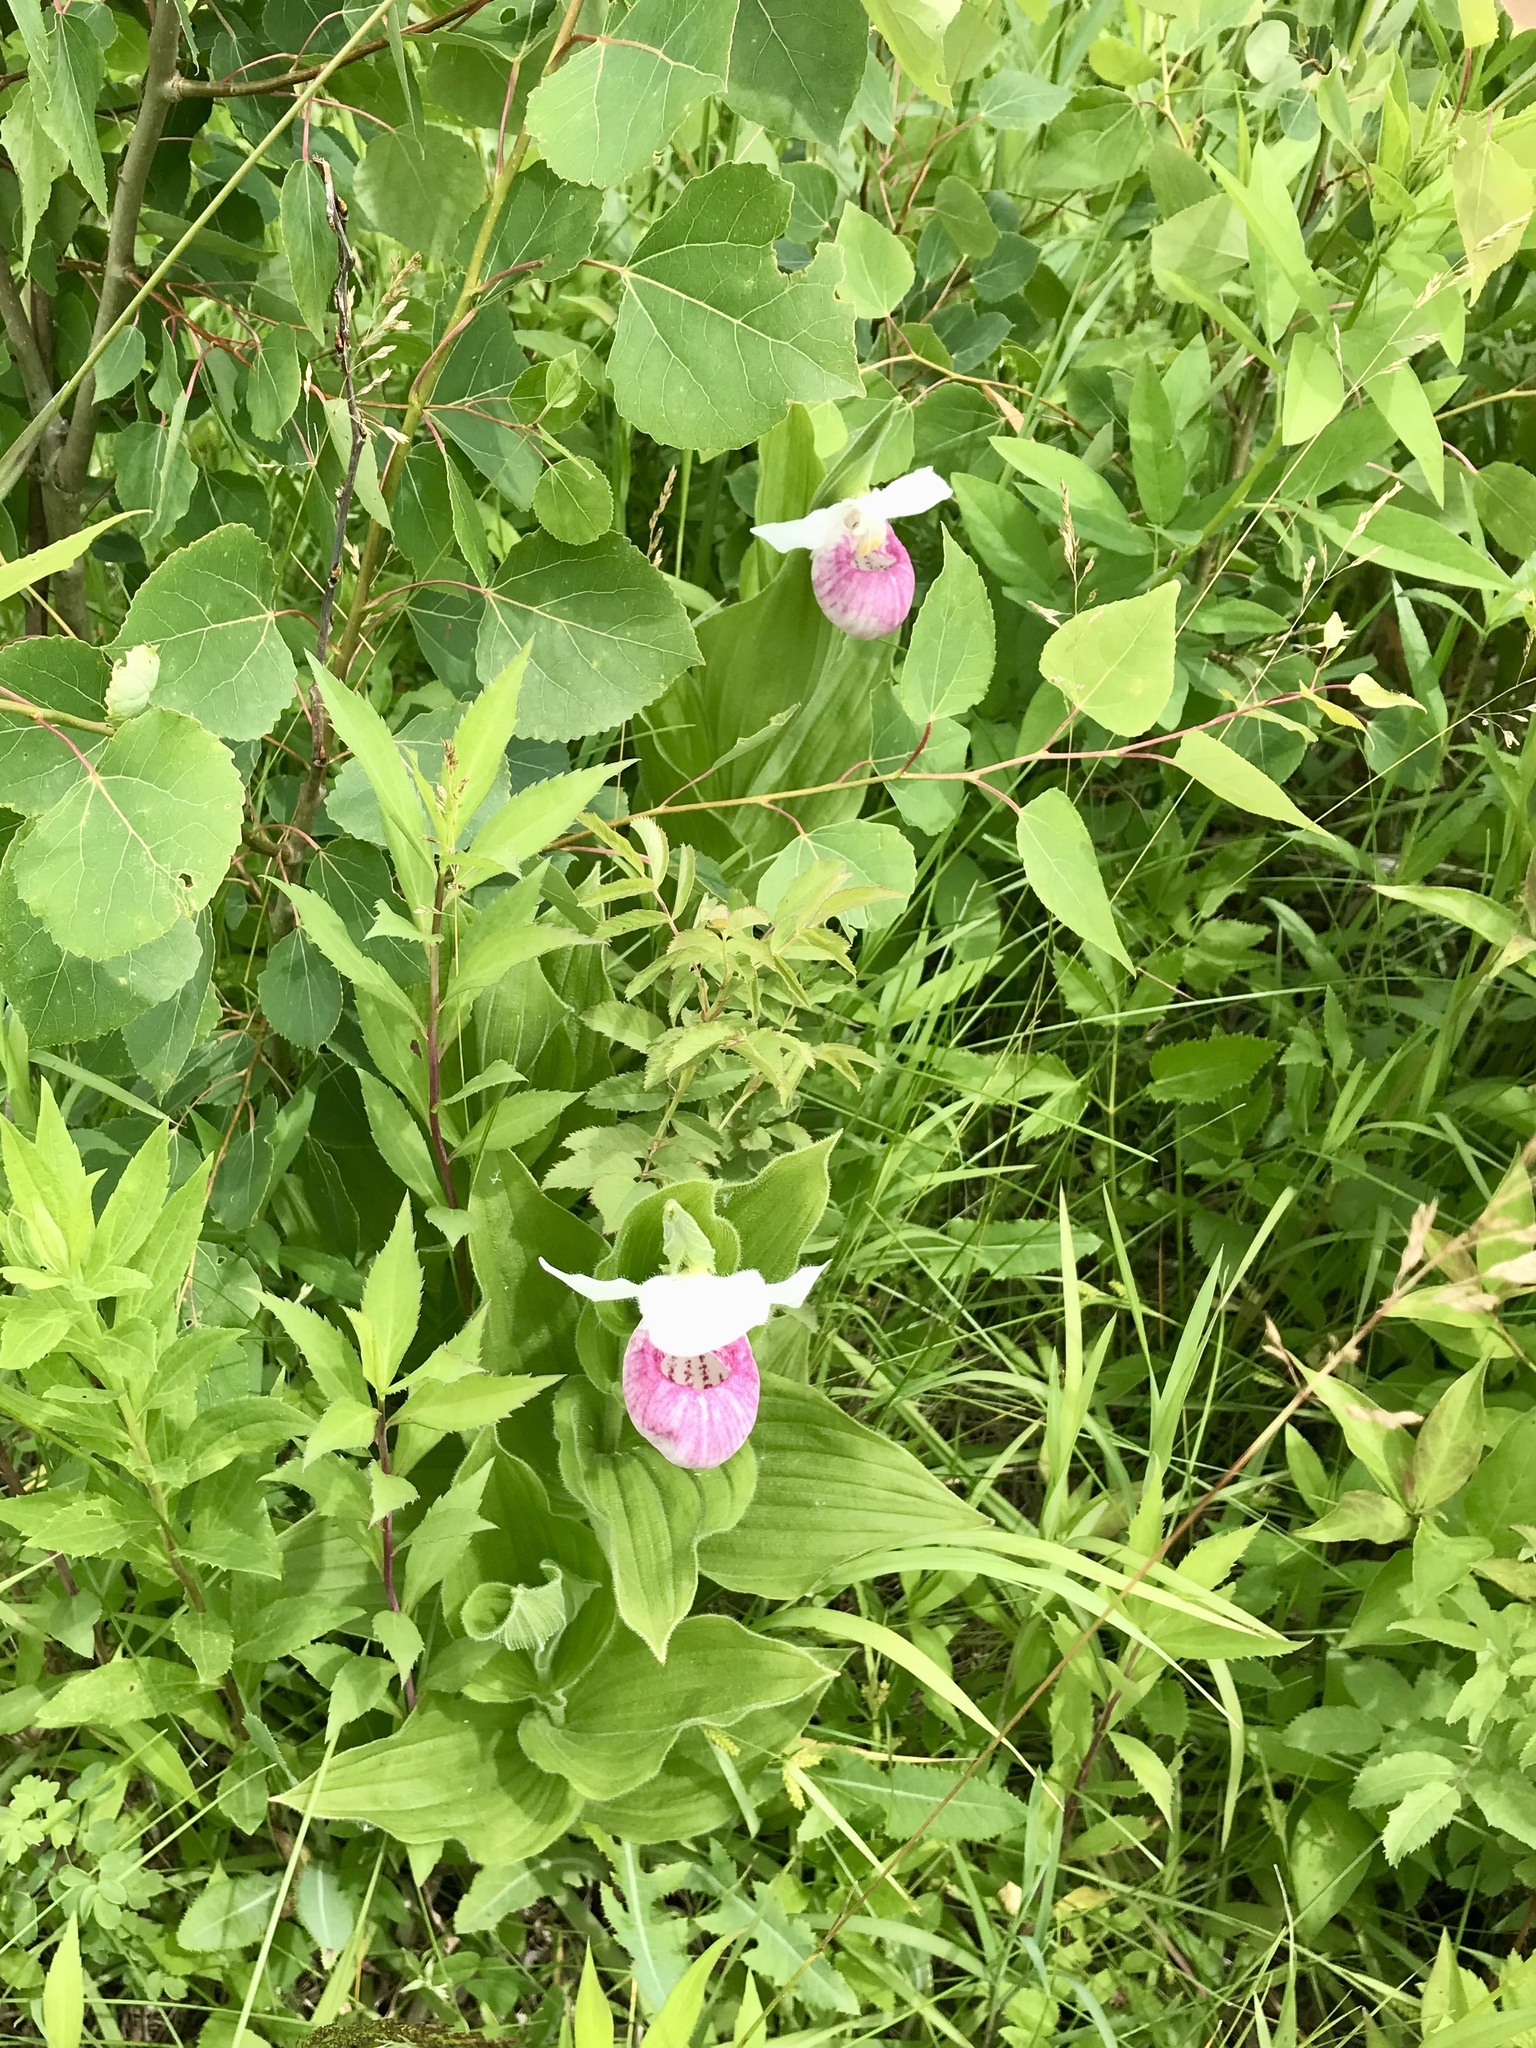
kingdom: Plantae
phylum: Tracheophyta
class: Liliopsida
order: Asparagales
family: Orchidaceae
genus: Cypripedium
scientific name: Cypripedium reginae
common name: Queen lady's-slipper
